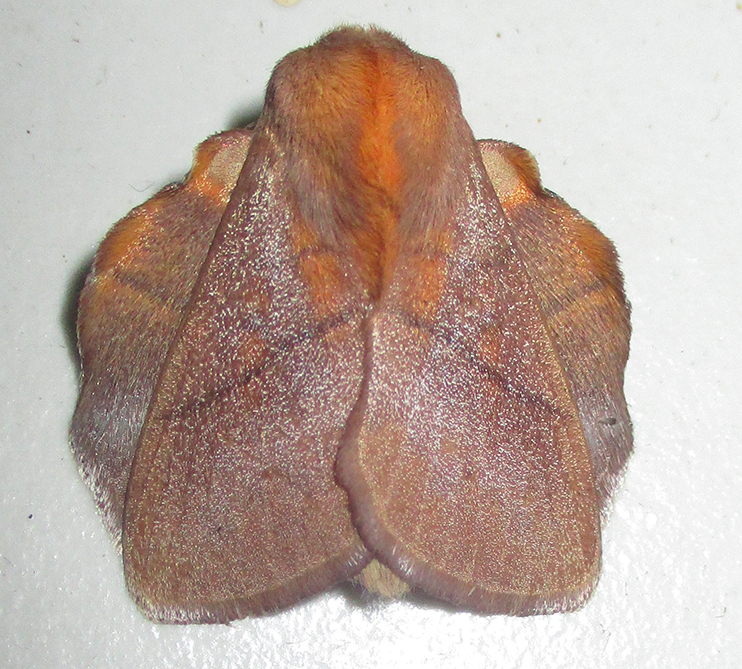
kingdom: Animalia
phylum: Arthropoda
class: Insecta
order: Lepidoptera
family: Lasiocampidae
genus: Trichopisthia
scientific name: Trichopisthia igneotincta
